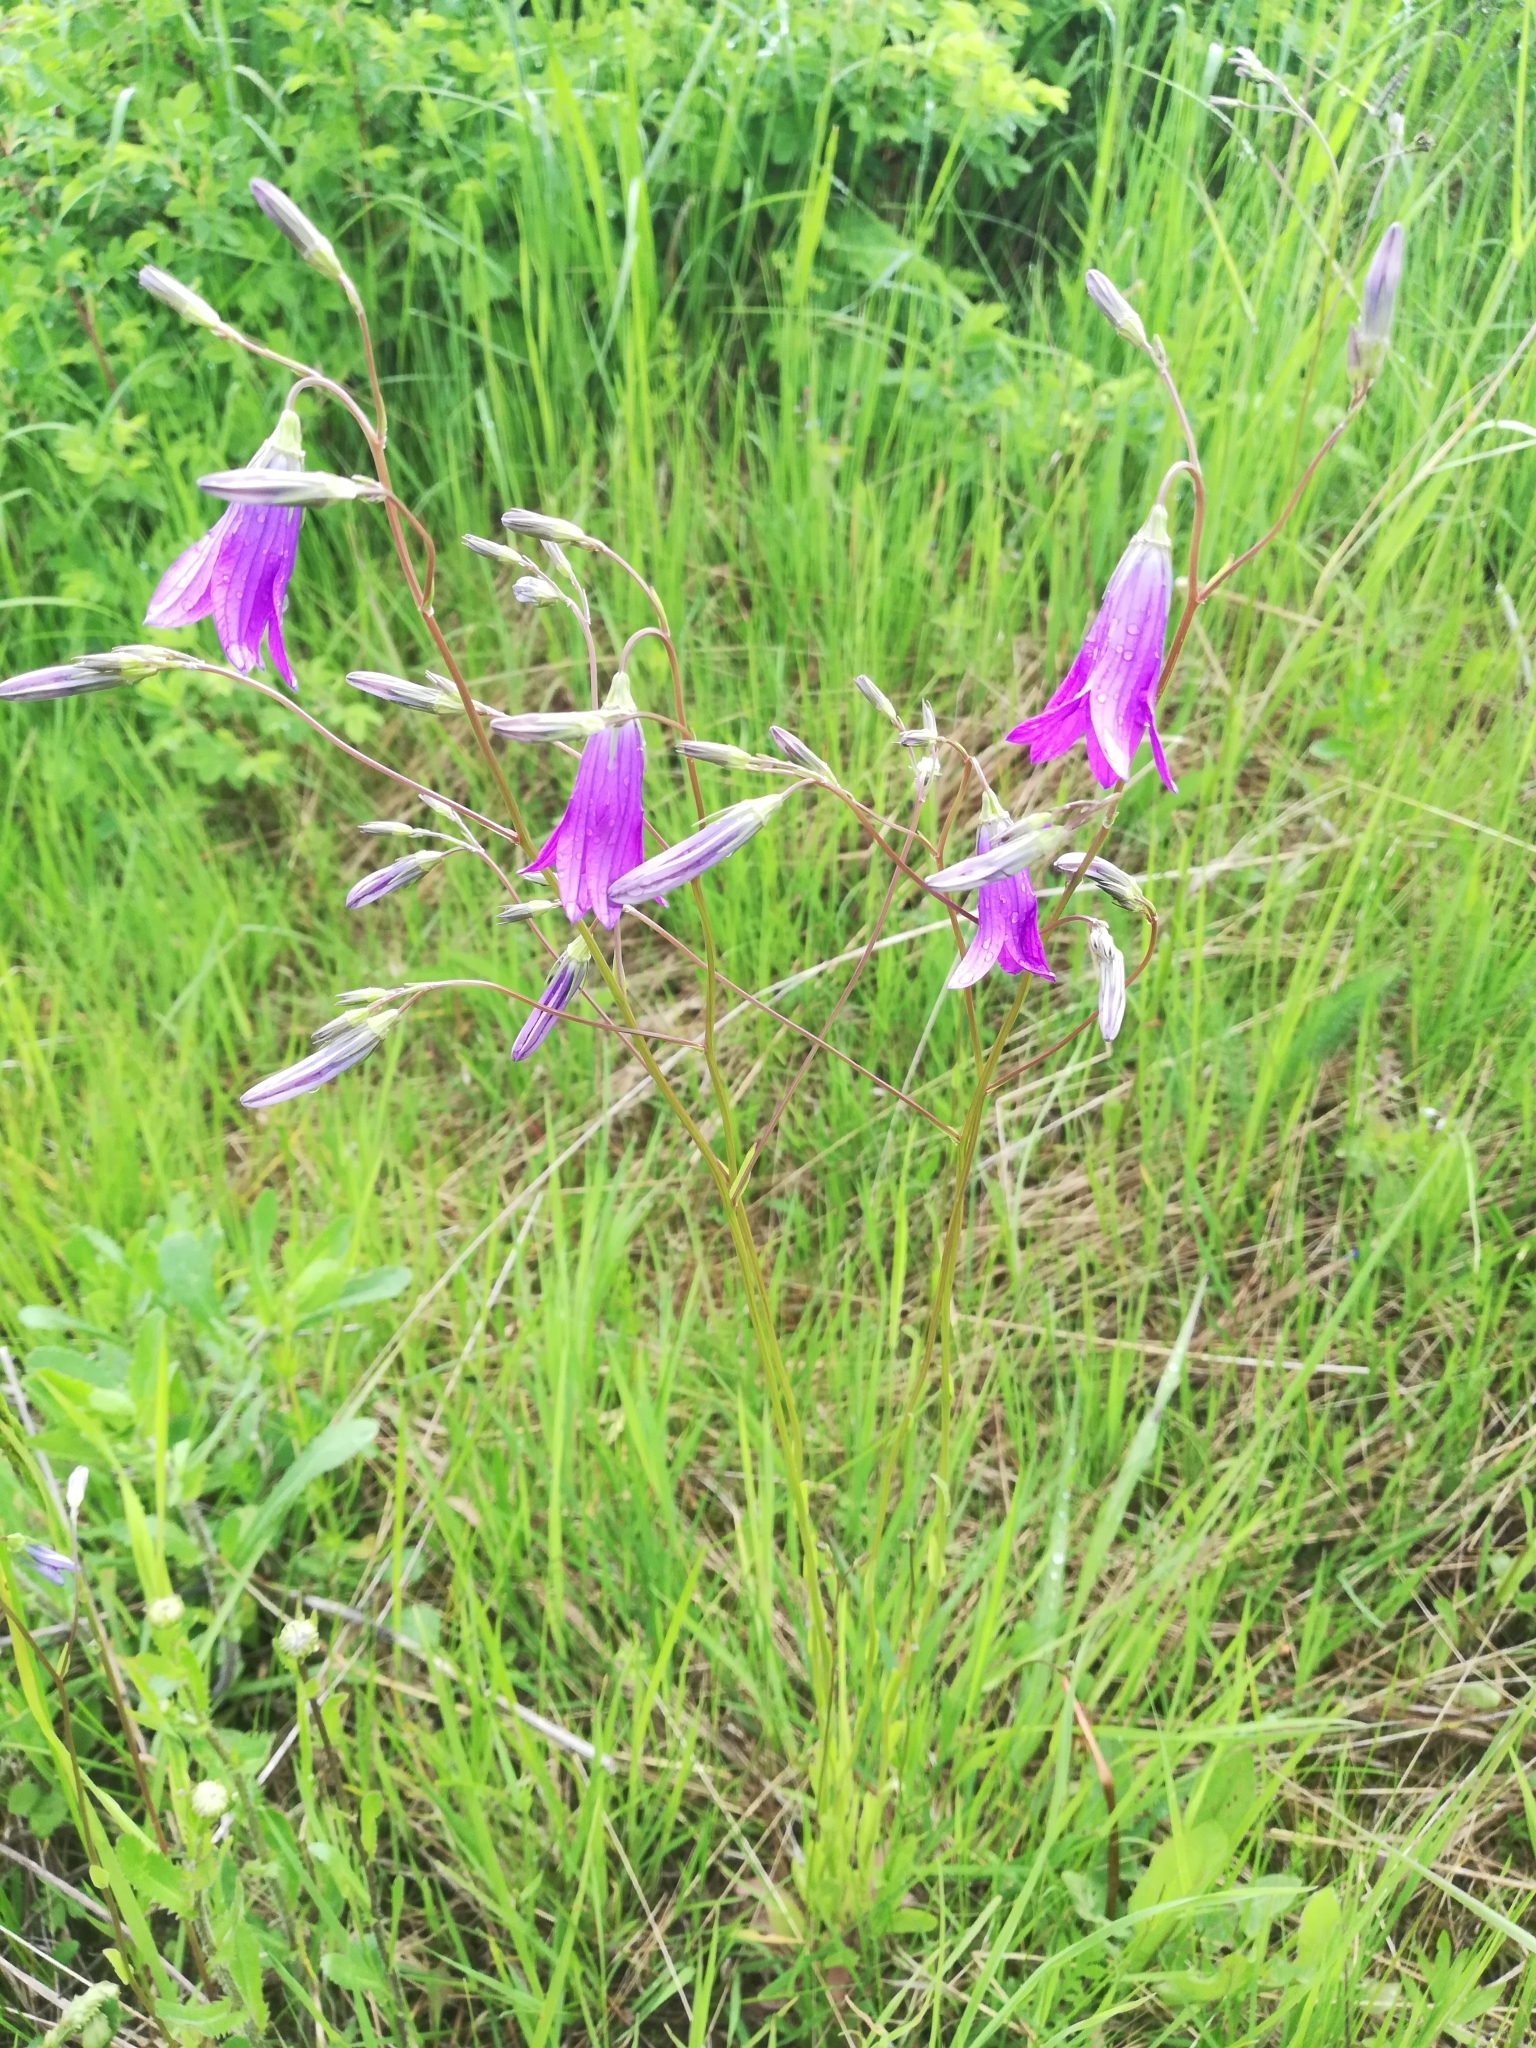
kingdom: Plantae
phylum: Tracheophyta
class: Magnoliopsida
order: Asterales
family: Campanulaceae
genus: Campanula
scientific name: Campanula patula
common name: Spreading bellflower
